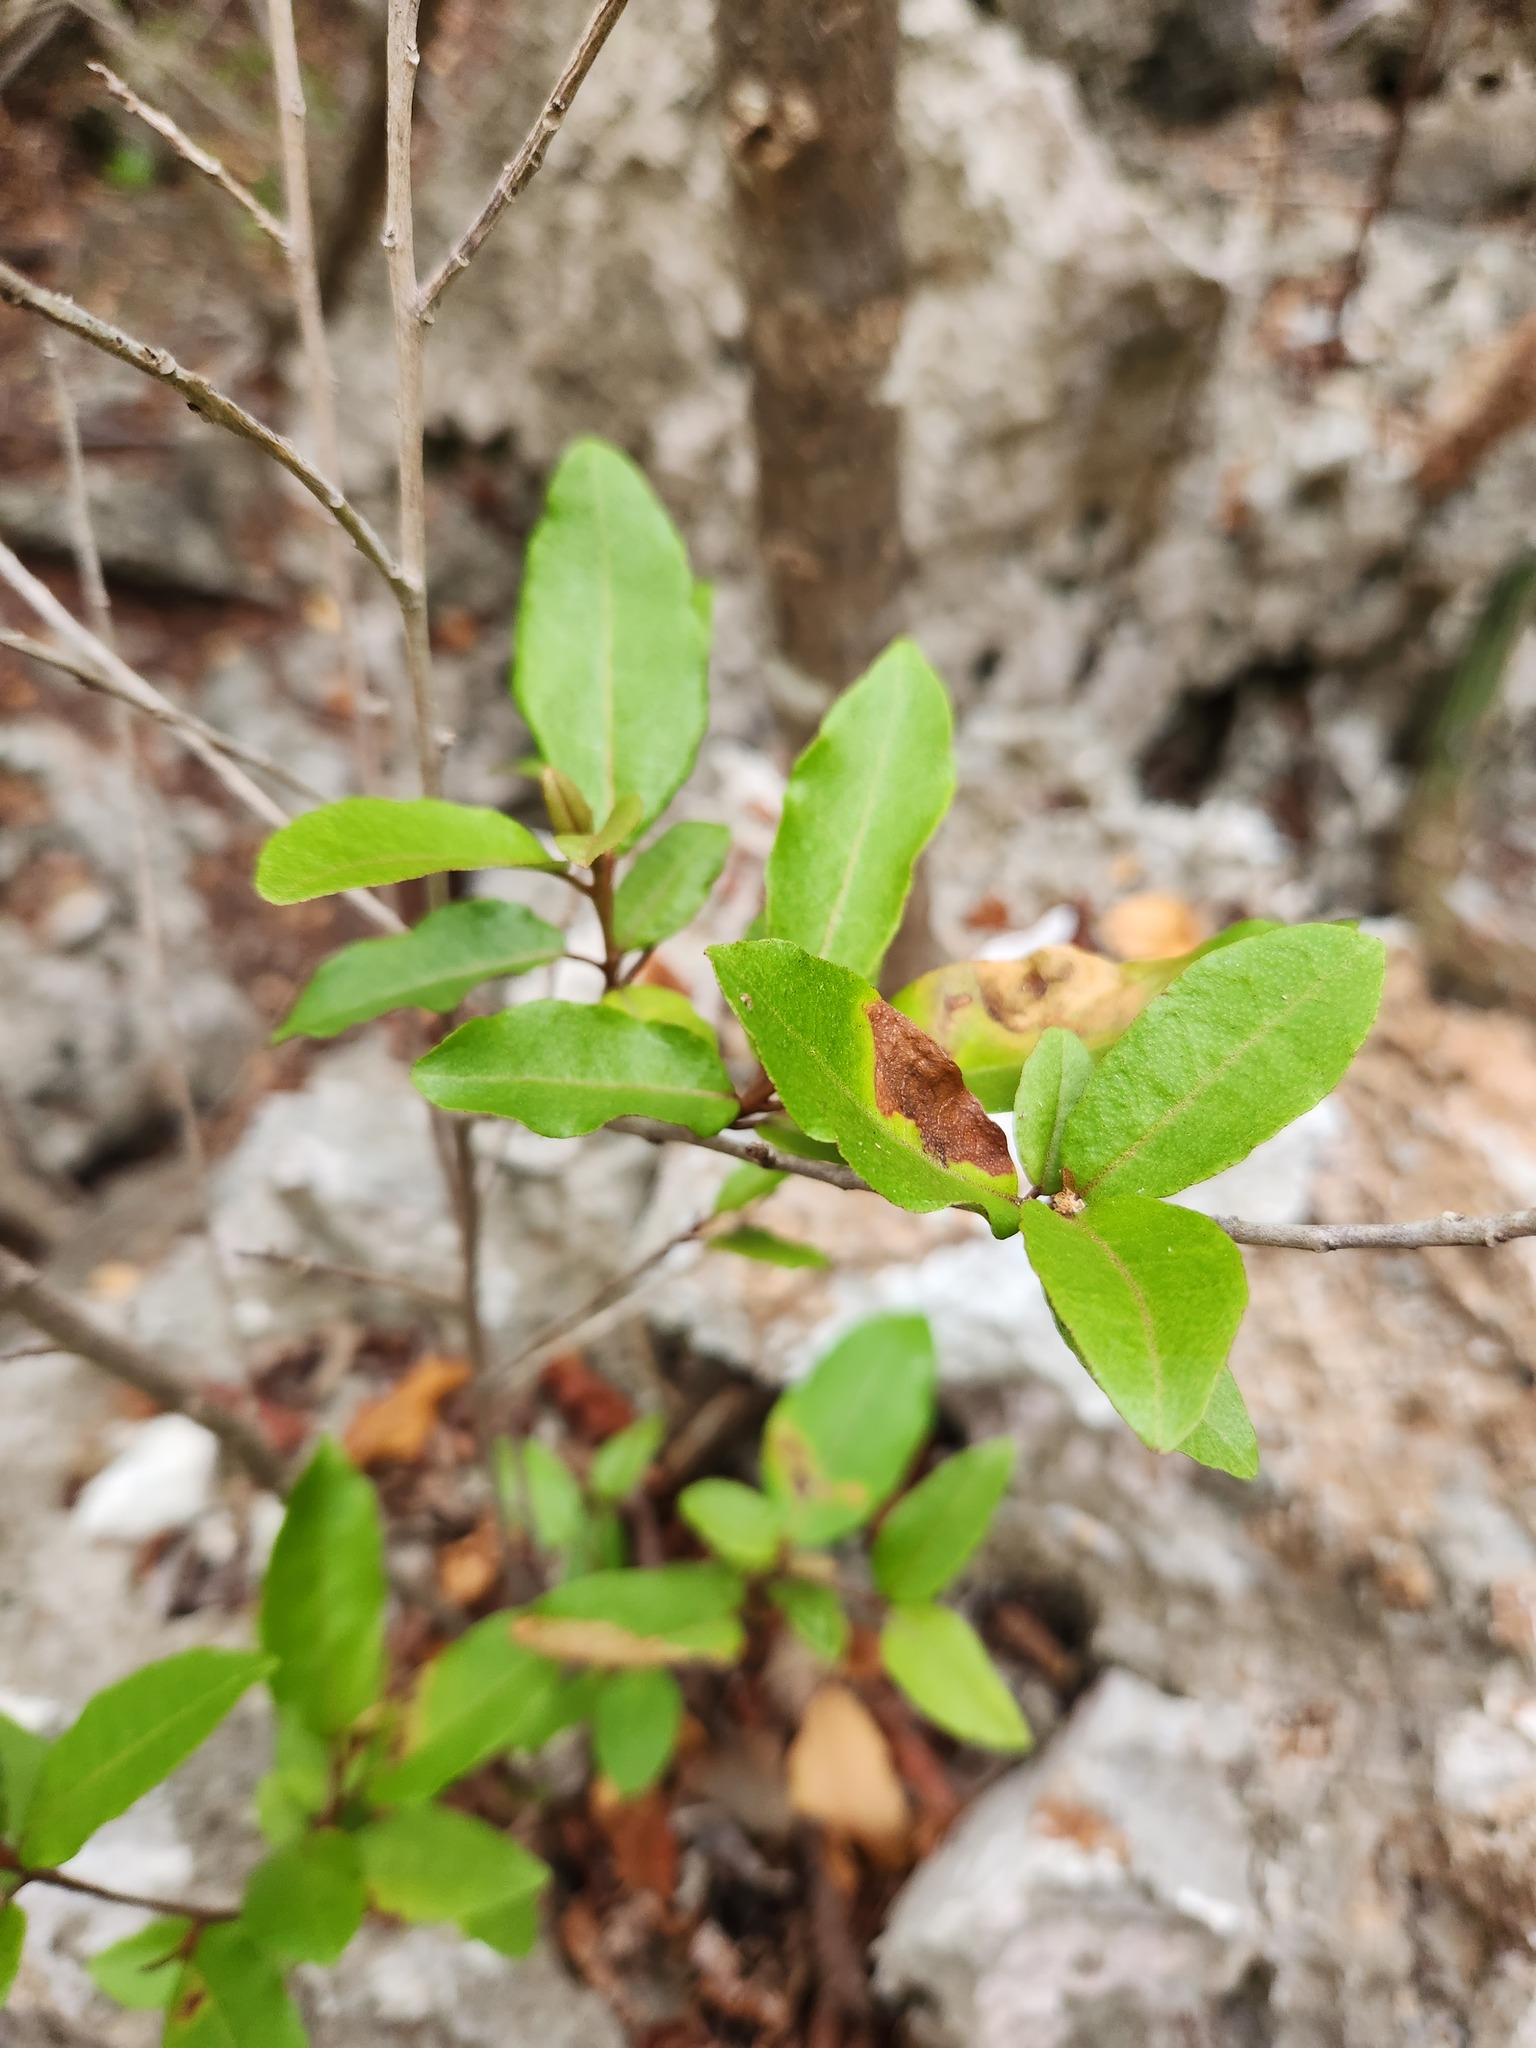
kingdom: Plantae
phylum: Tracheophyta
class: Magnoliopsida
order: Malpighiales
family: Euphorbiaceae
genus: Croton
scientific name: Croton nitens
